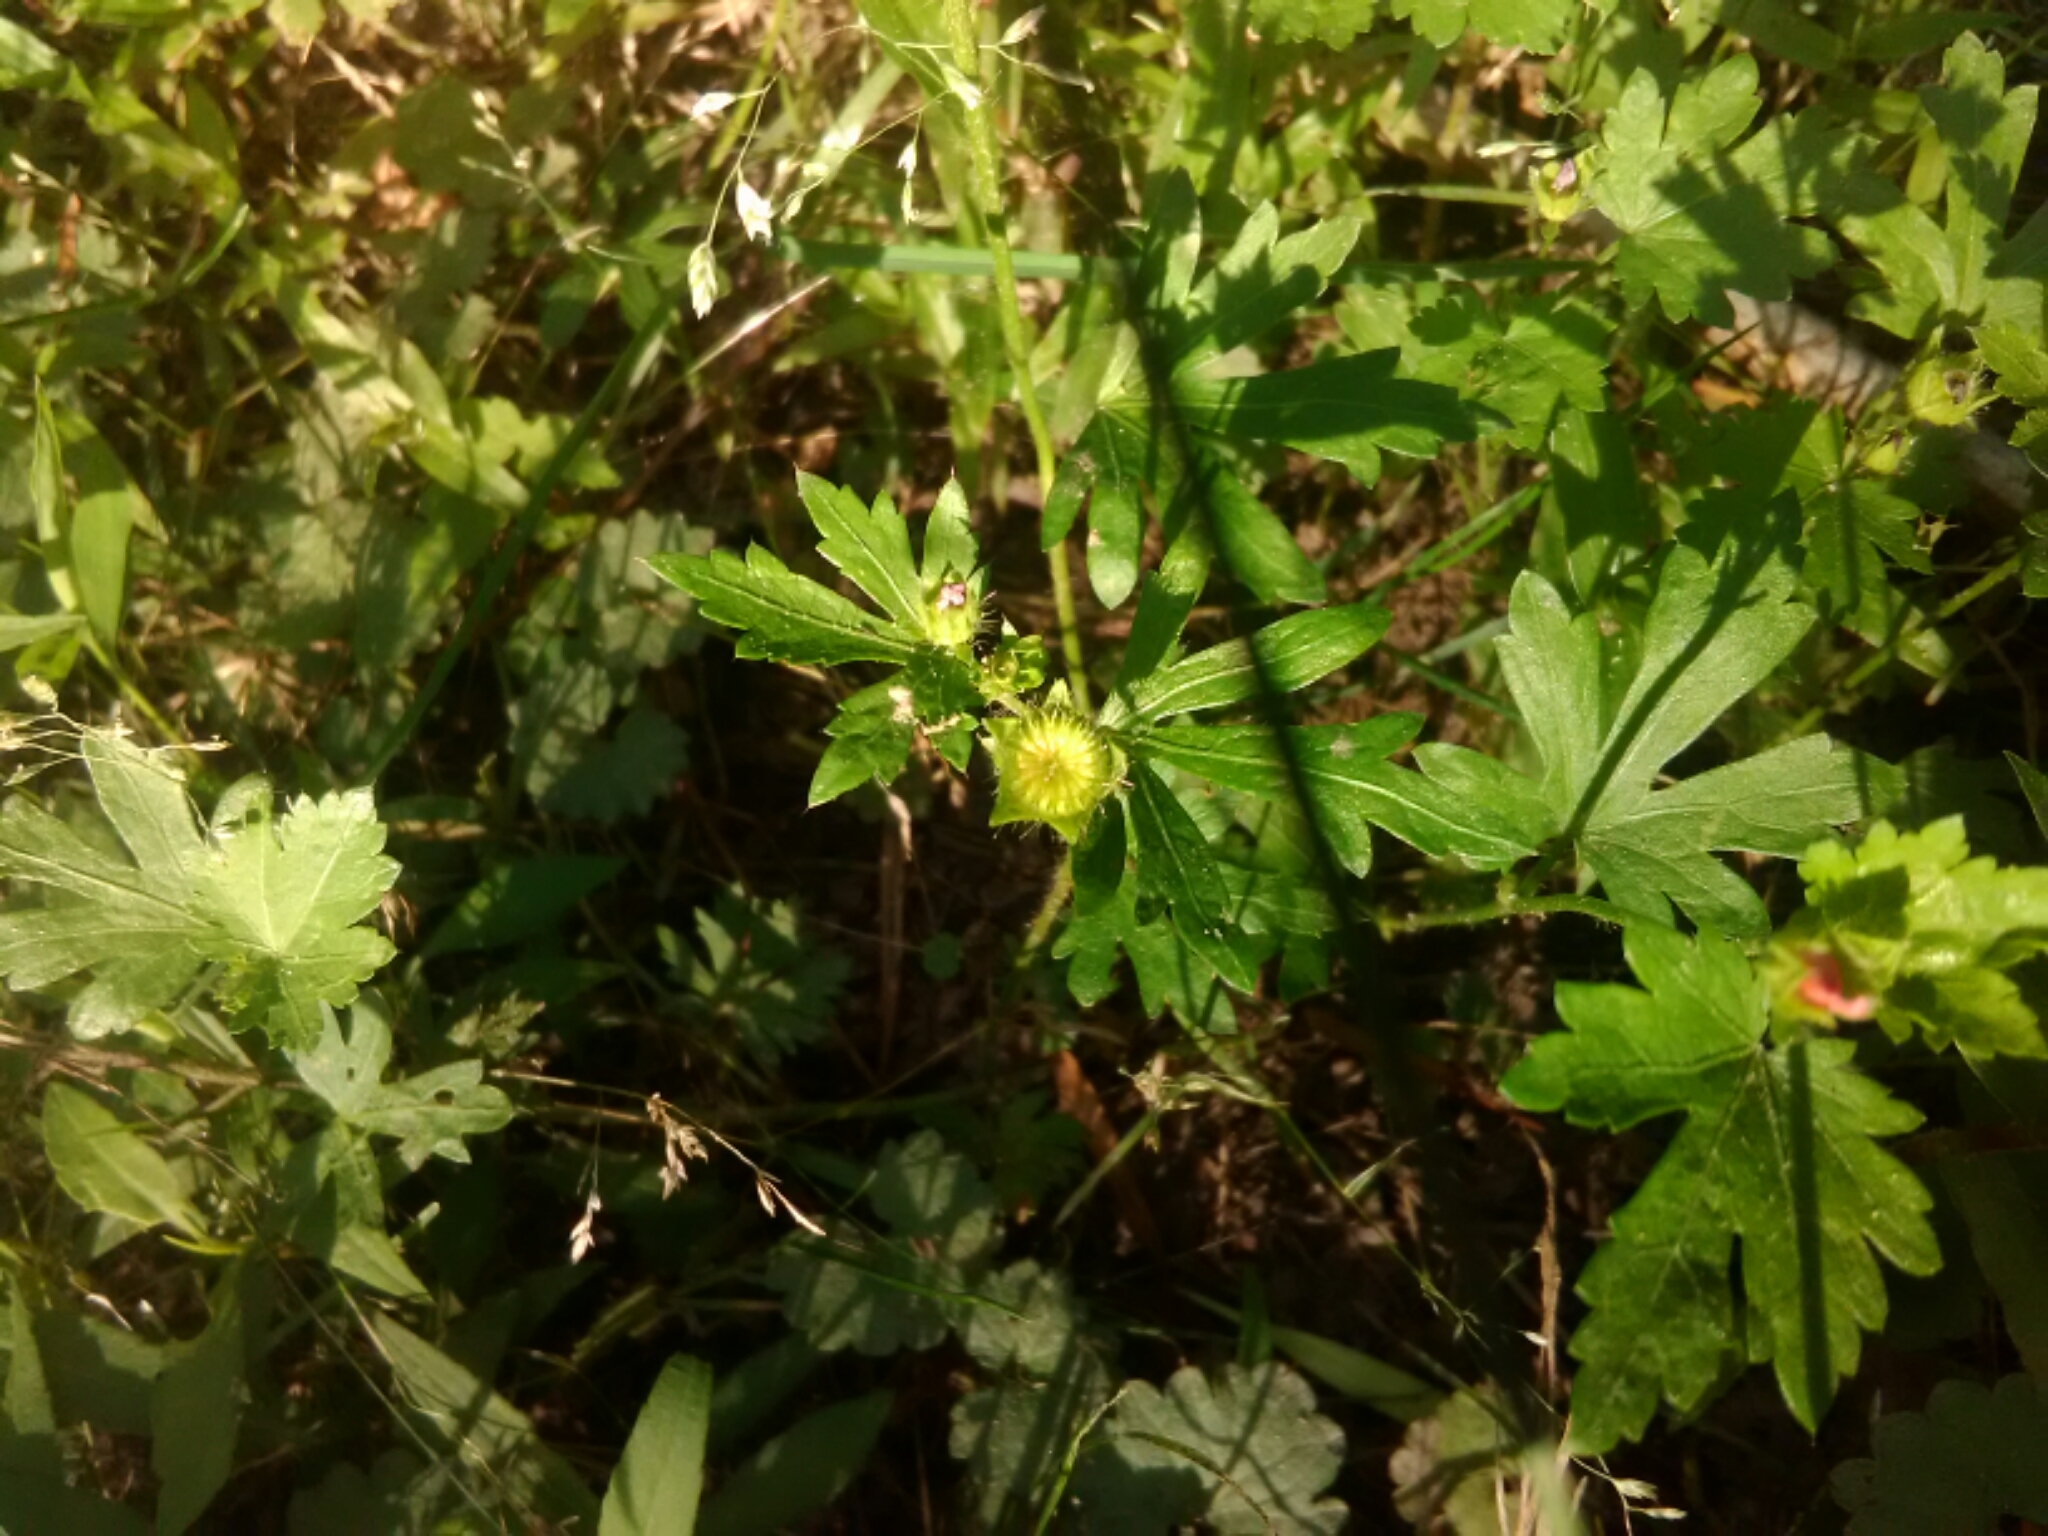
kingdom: Plantae
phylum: Tracheophyta
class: Magnoliopsida
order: Malvales
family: Malvaceae
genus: Modiola
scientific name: Modiola caroliniana
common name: Carolina bristlemallow
